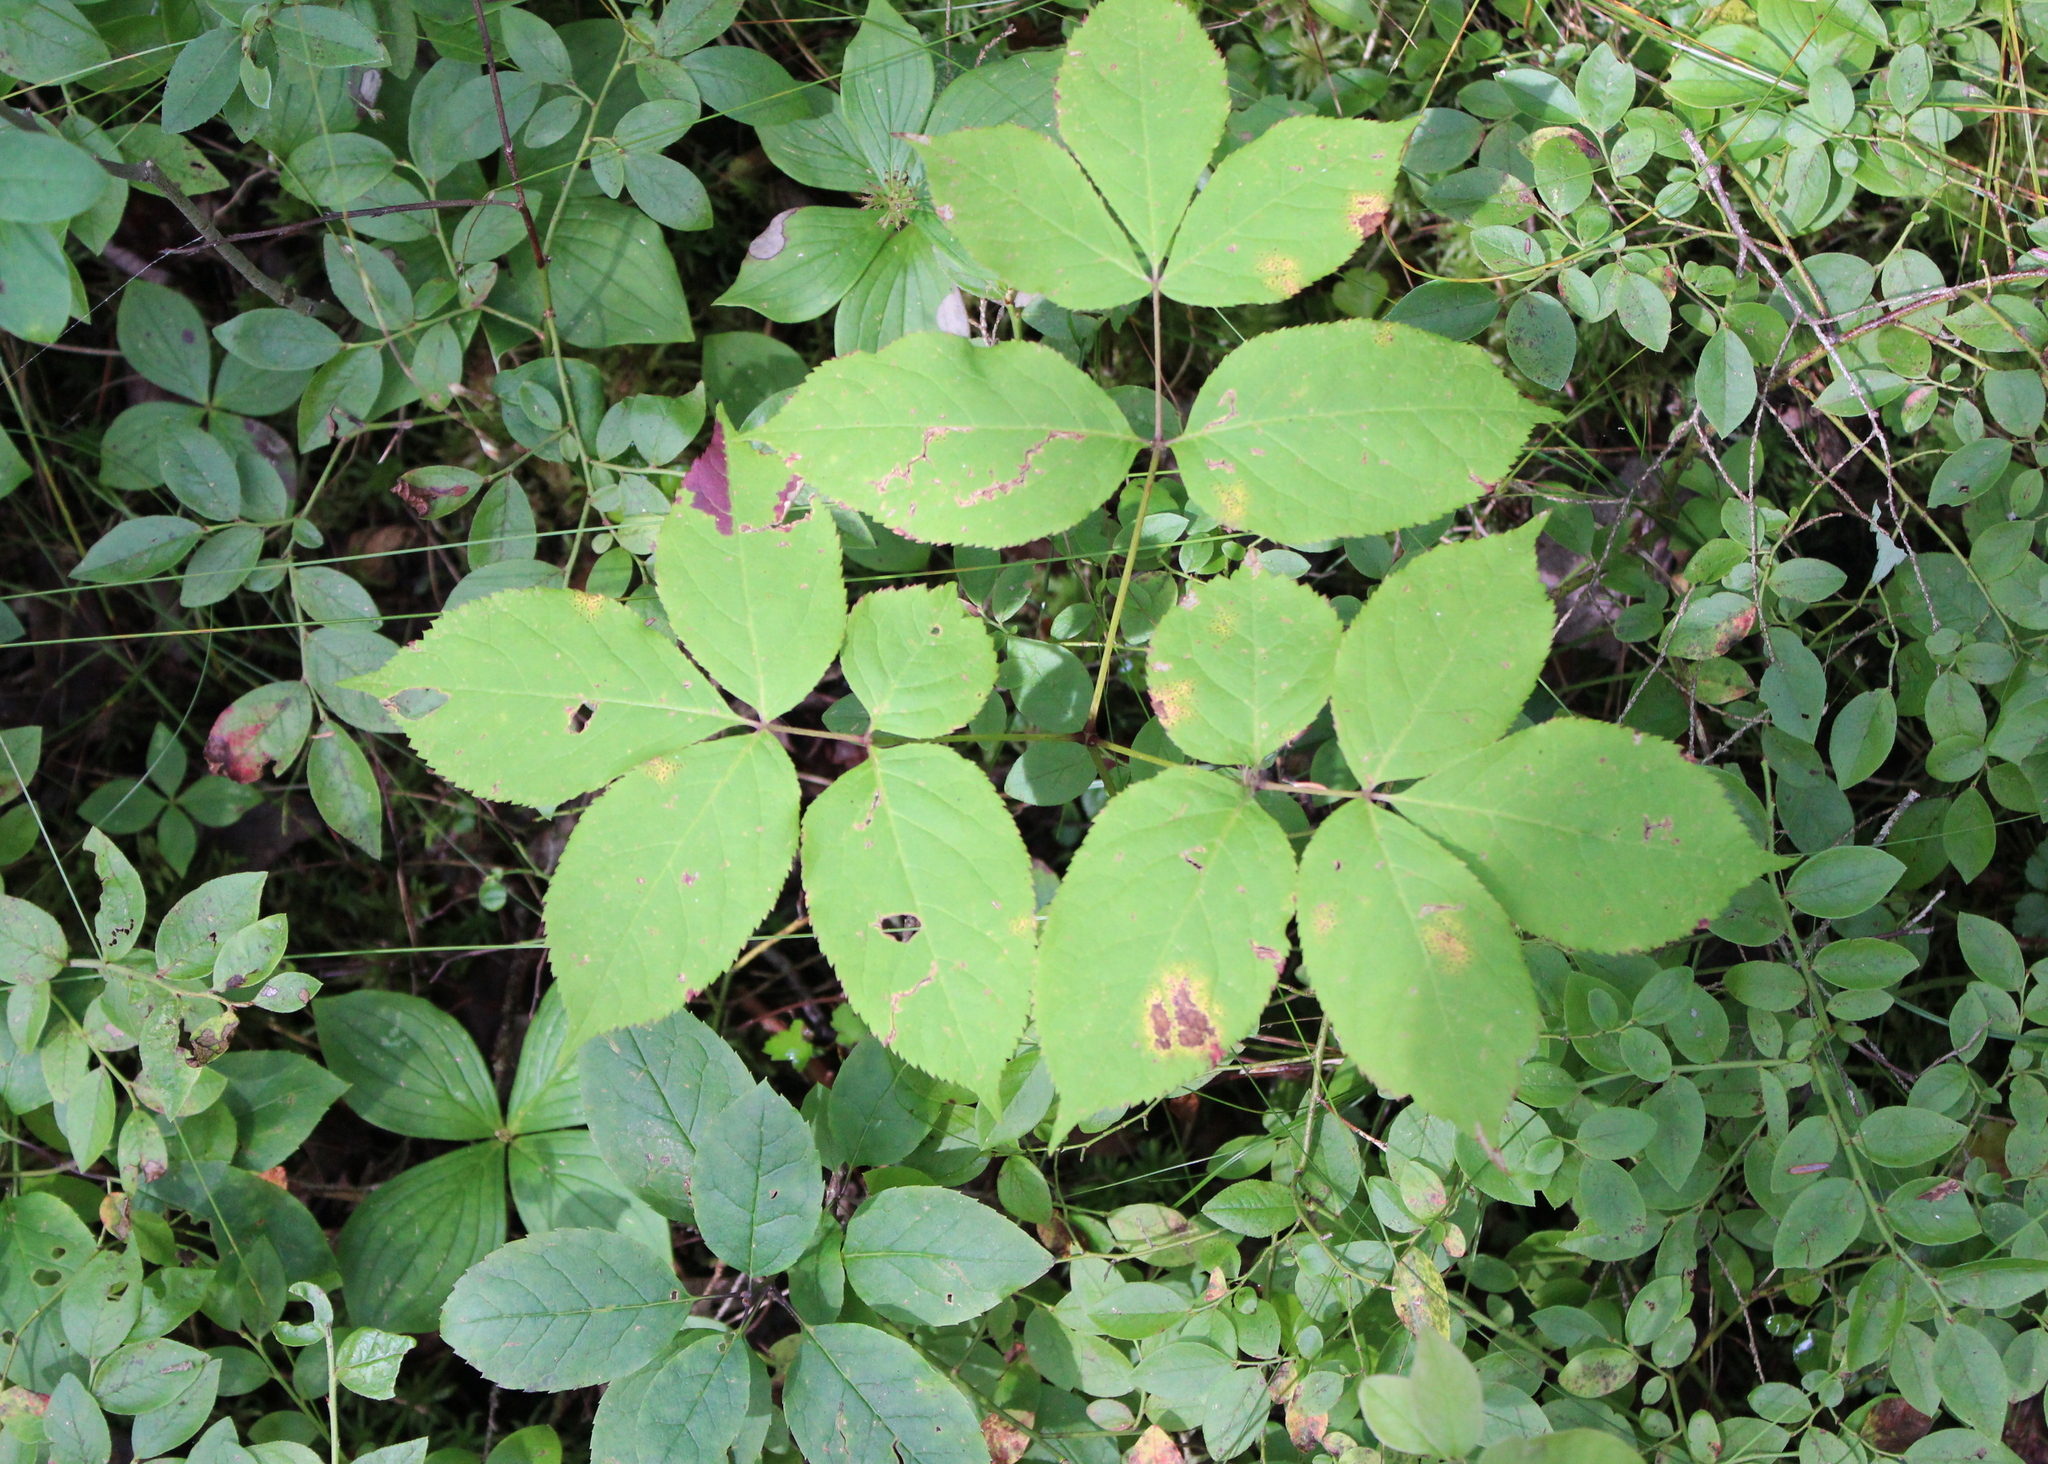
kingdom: Plantae
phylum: Tracheophyta
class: Magnoliopsida
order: Apiales
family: Araliaceae
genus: Aralia
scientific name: Aralia nudicaulis
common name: Wild sarsaparilla
